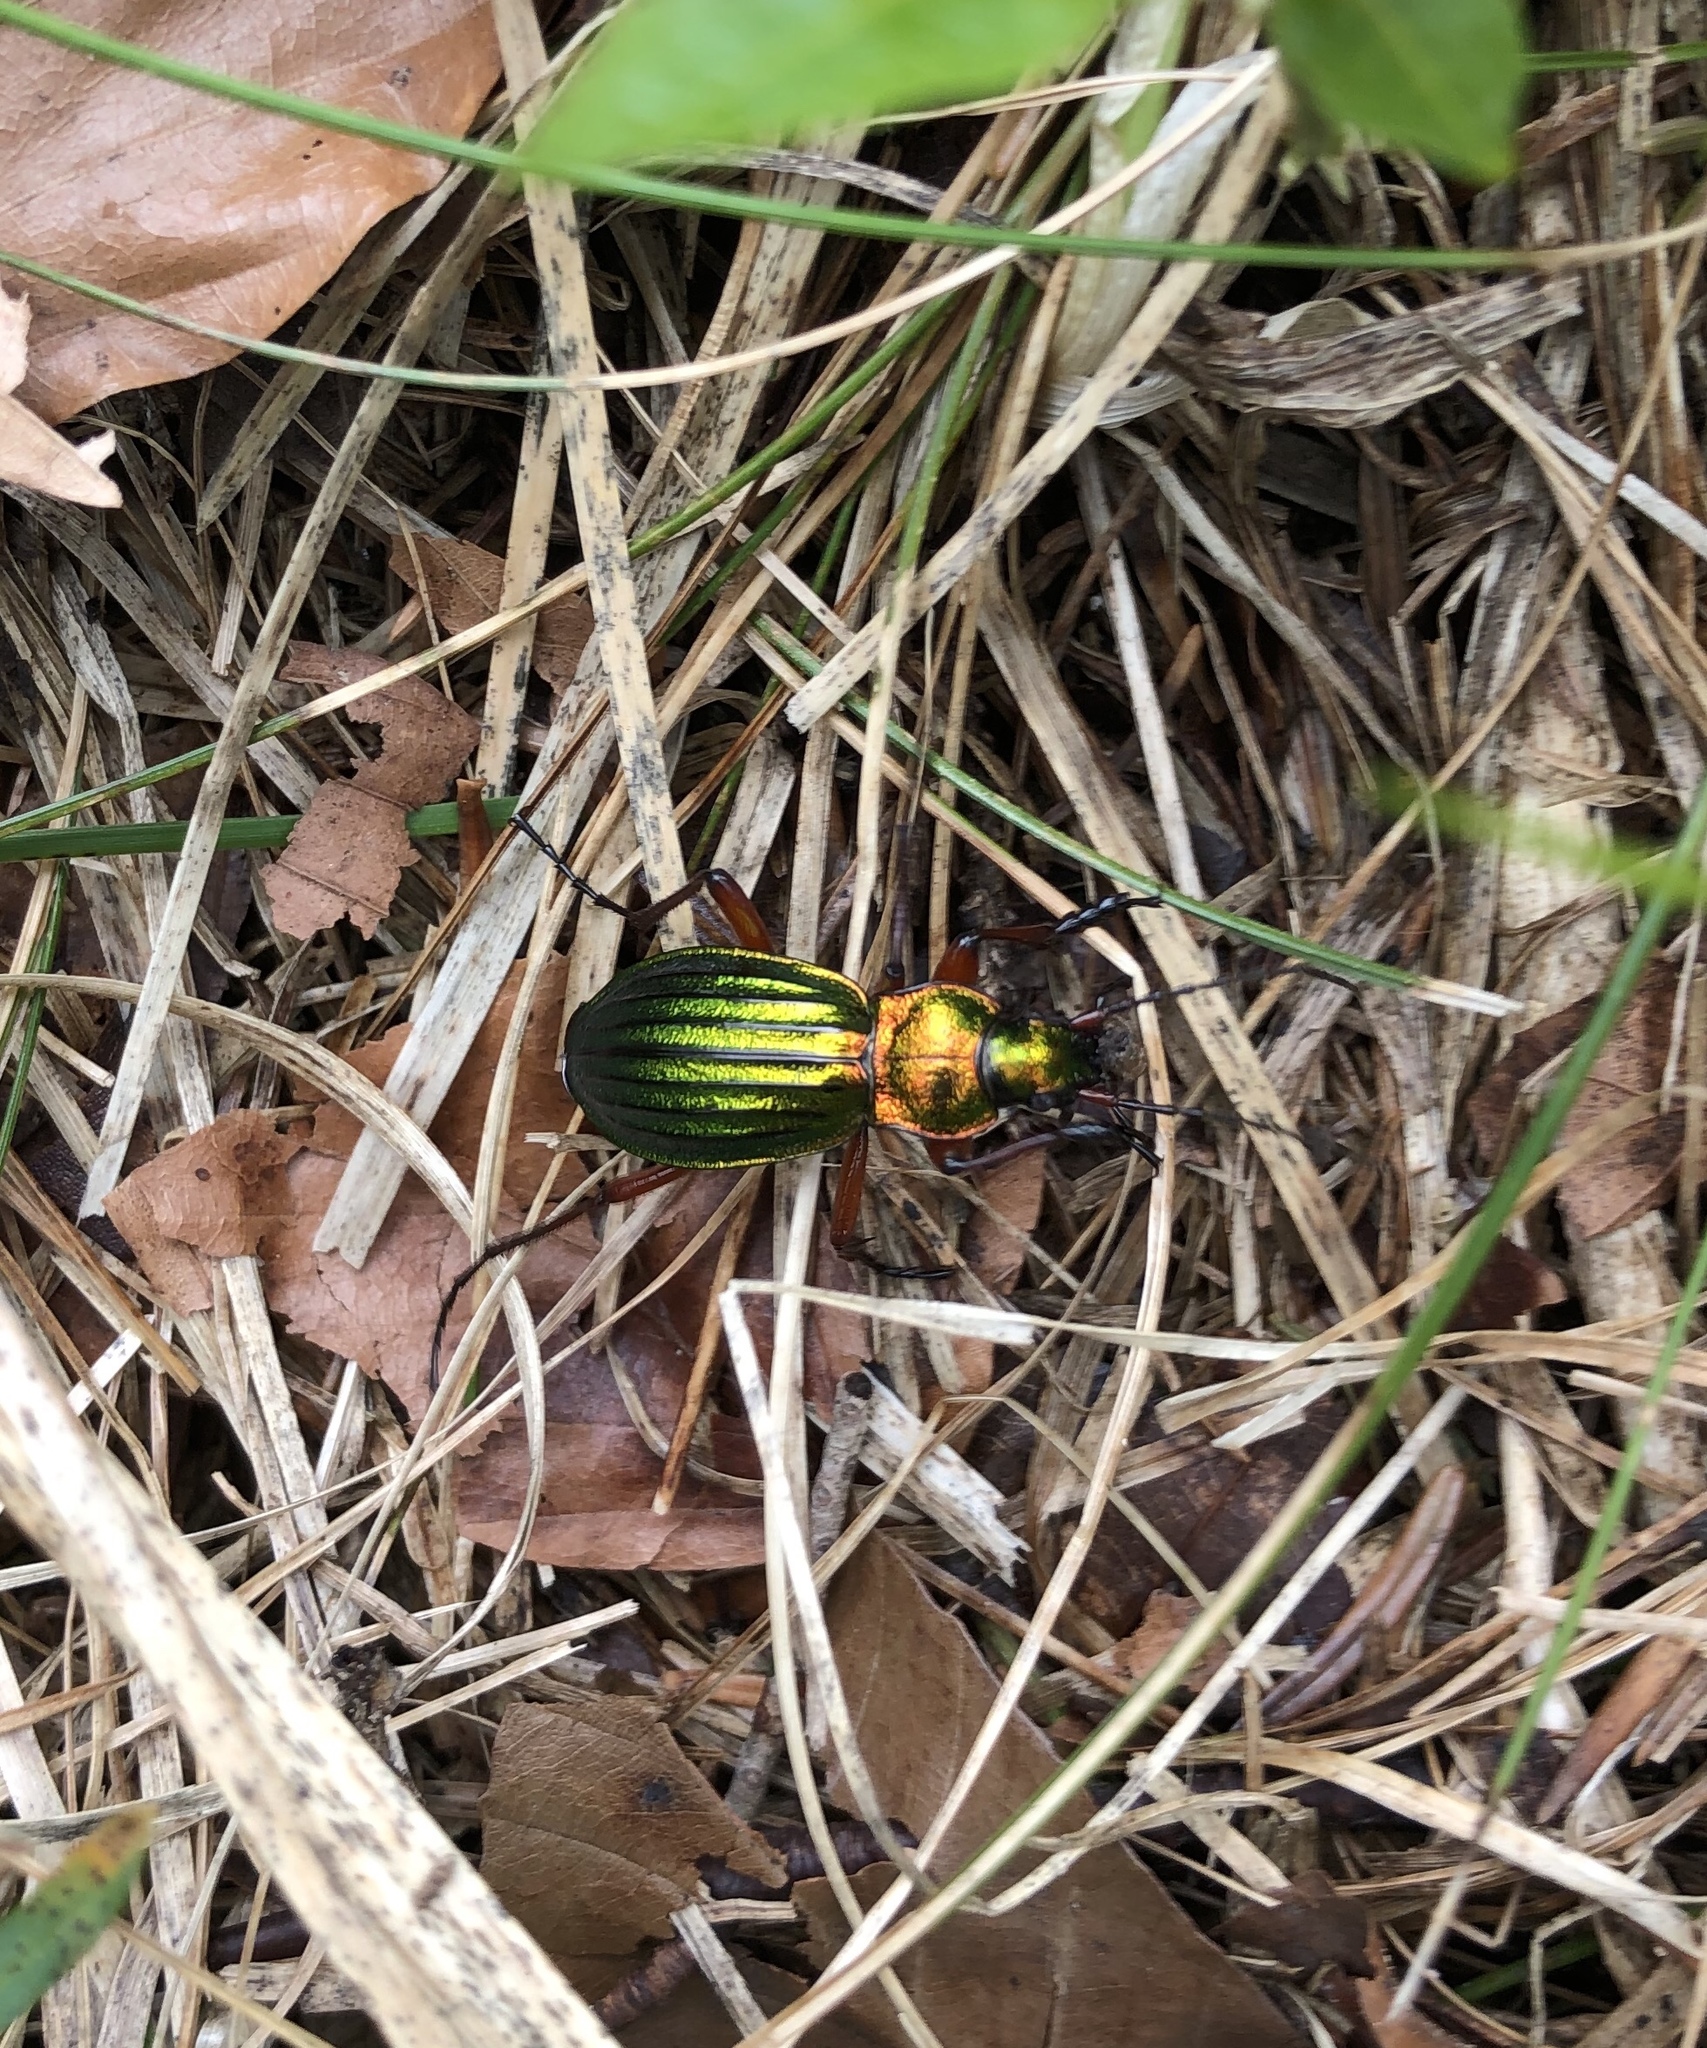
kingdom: Animalia
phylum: Arthropoda
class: Insecta
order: Coleoptera
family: Carabidae
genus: Carabus
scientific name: Carabus auronitens
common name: Carabus auronitens
